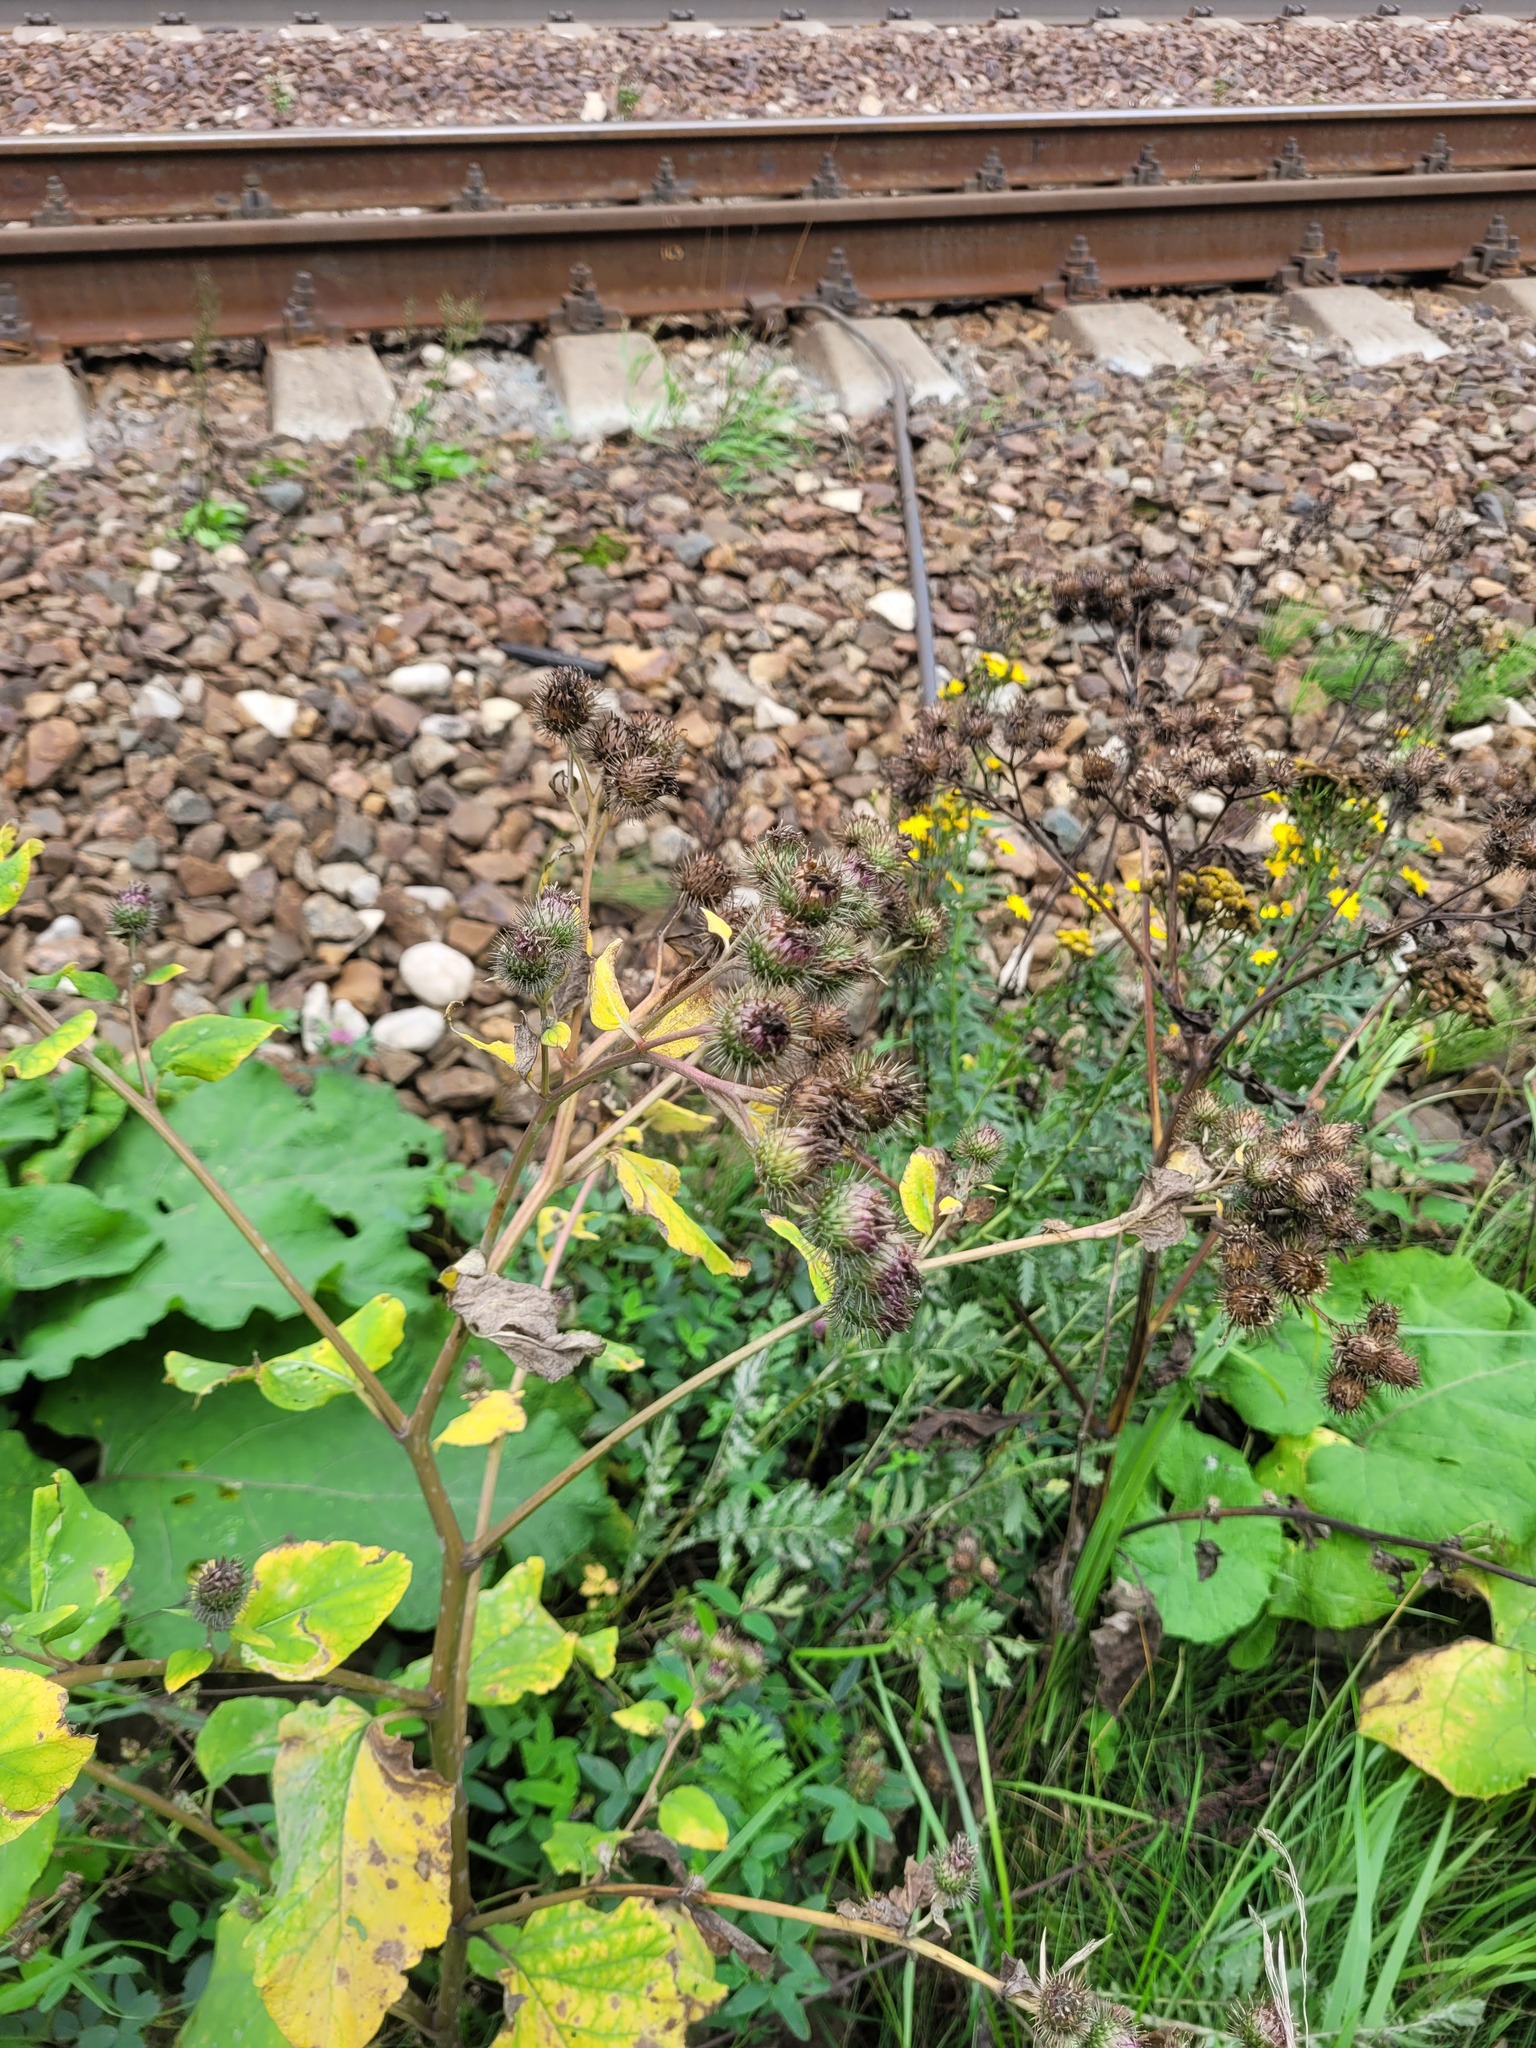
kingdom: Plantae
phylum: Tracheophyta
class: Magnoliopsida
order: Asterales
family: Asteraceae
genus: Arctium
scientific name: Arctium
